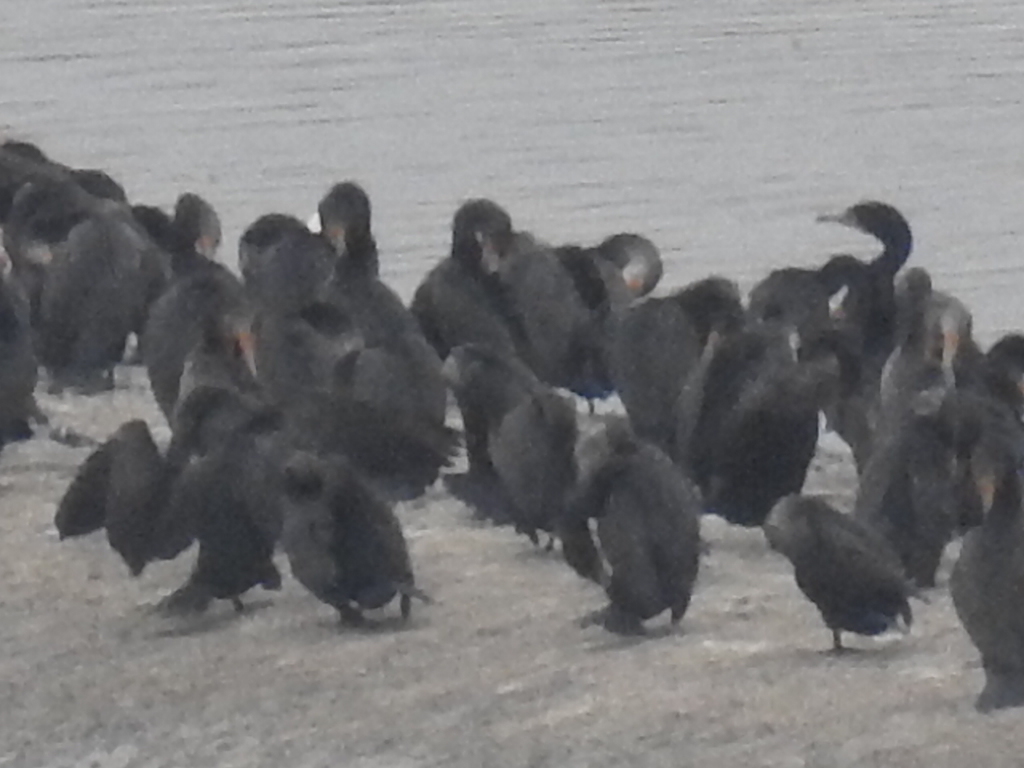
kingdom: Animalia
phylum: Chordata
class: Aves
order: Suliformes
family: Phalacrocoracidae
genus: Phalacrocorax
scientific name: Phalacrocorax auritus
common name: Double-crested cormorant
